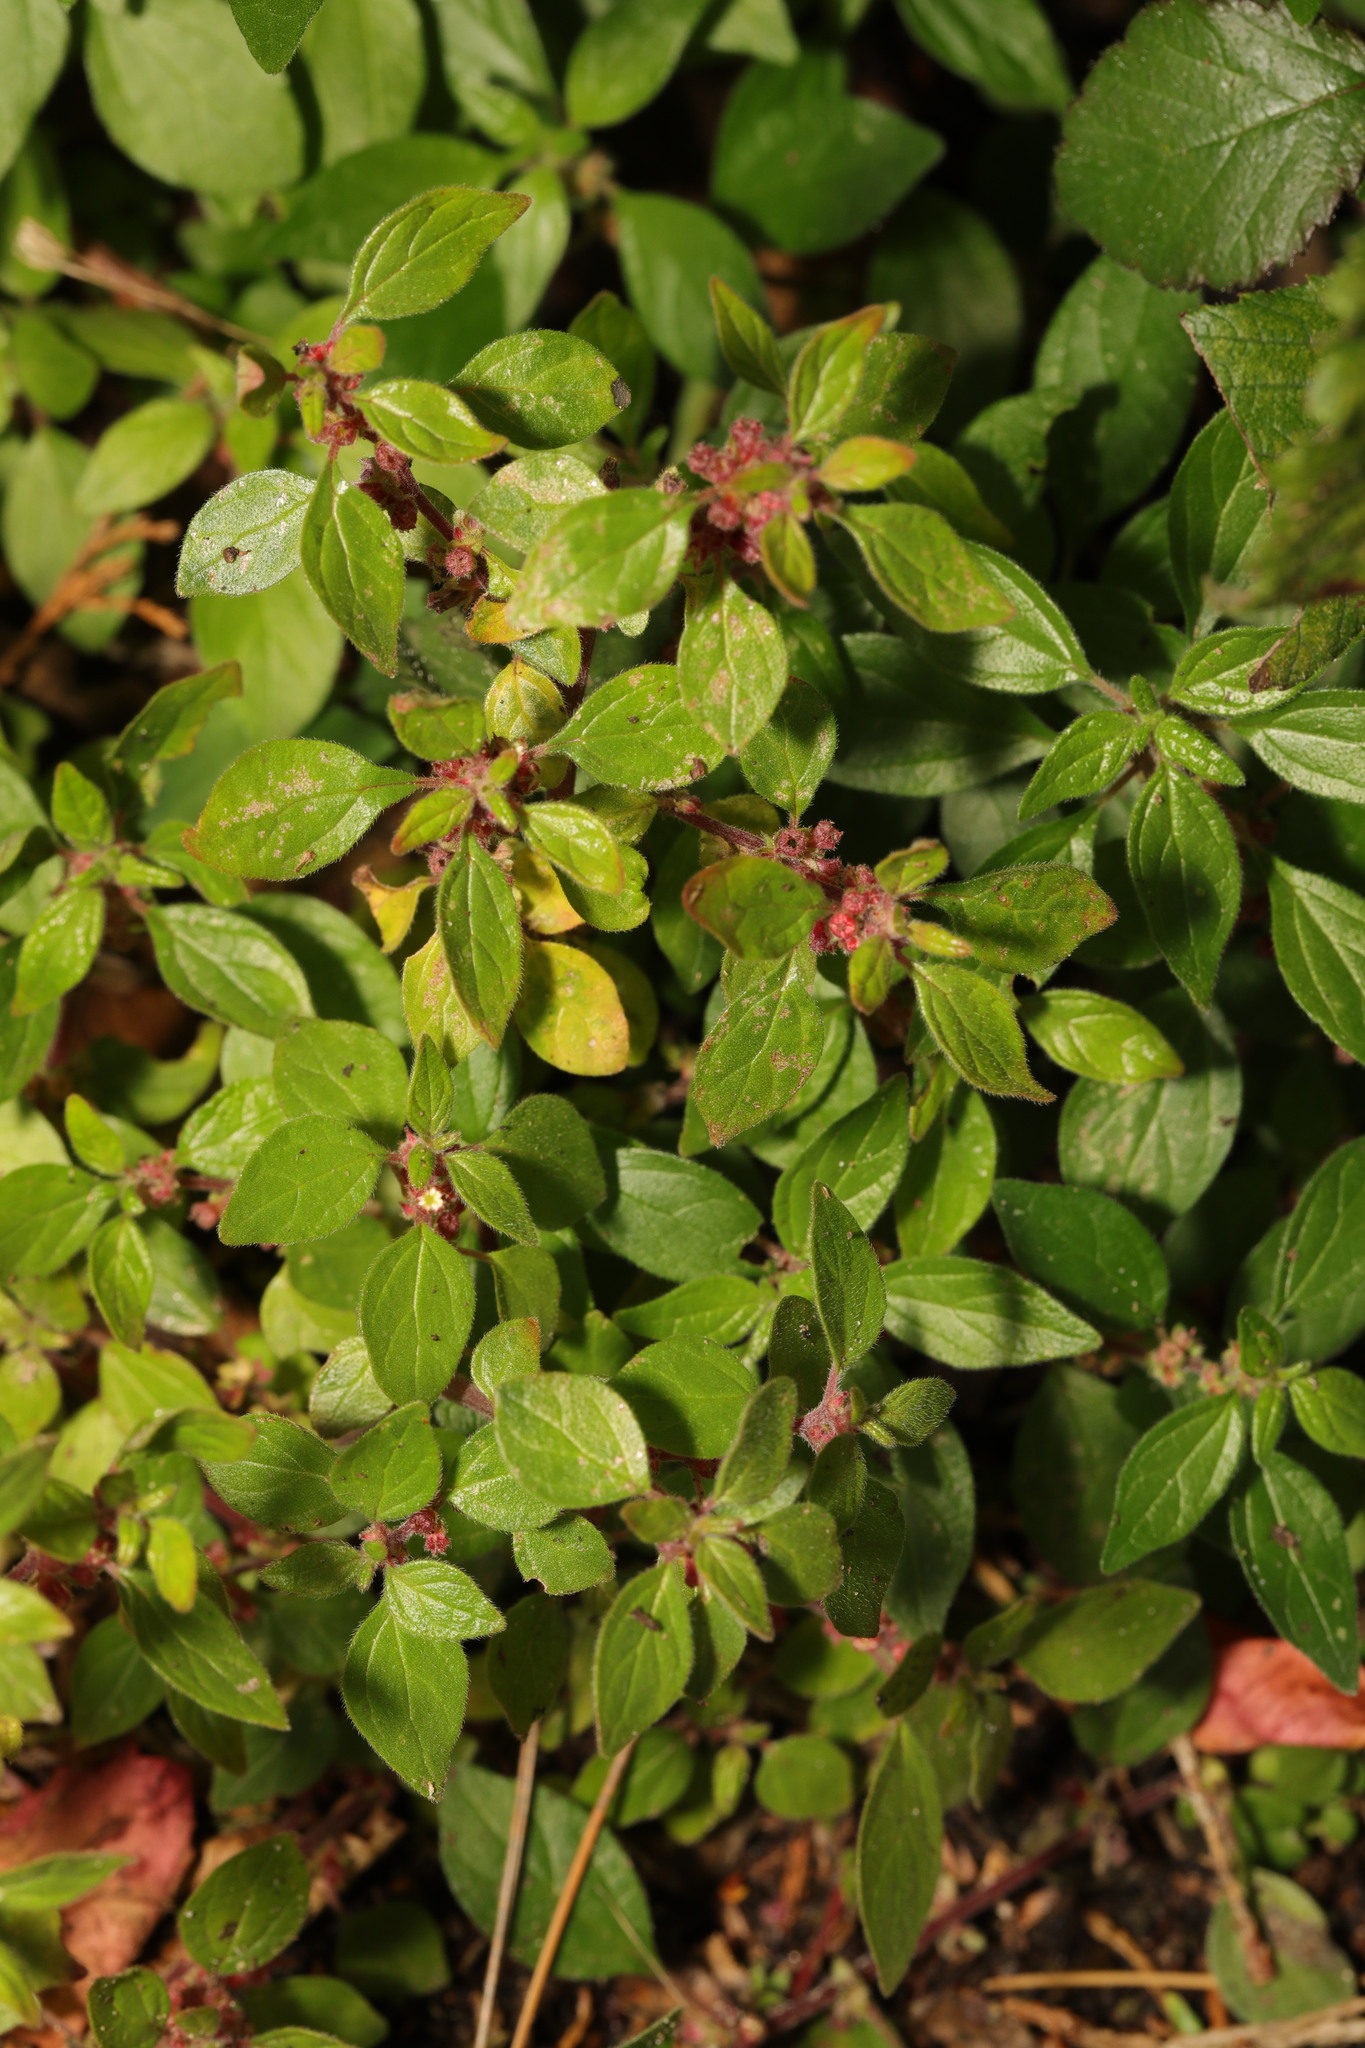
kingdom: Plantae
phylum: Tracheophyta
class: Magnoliopsida
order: Rosales
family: Urticaceae
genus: Parietaria
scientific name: Parietaria judaica
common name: Pellitory-of-the-wall
